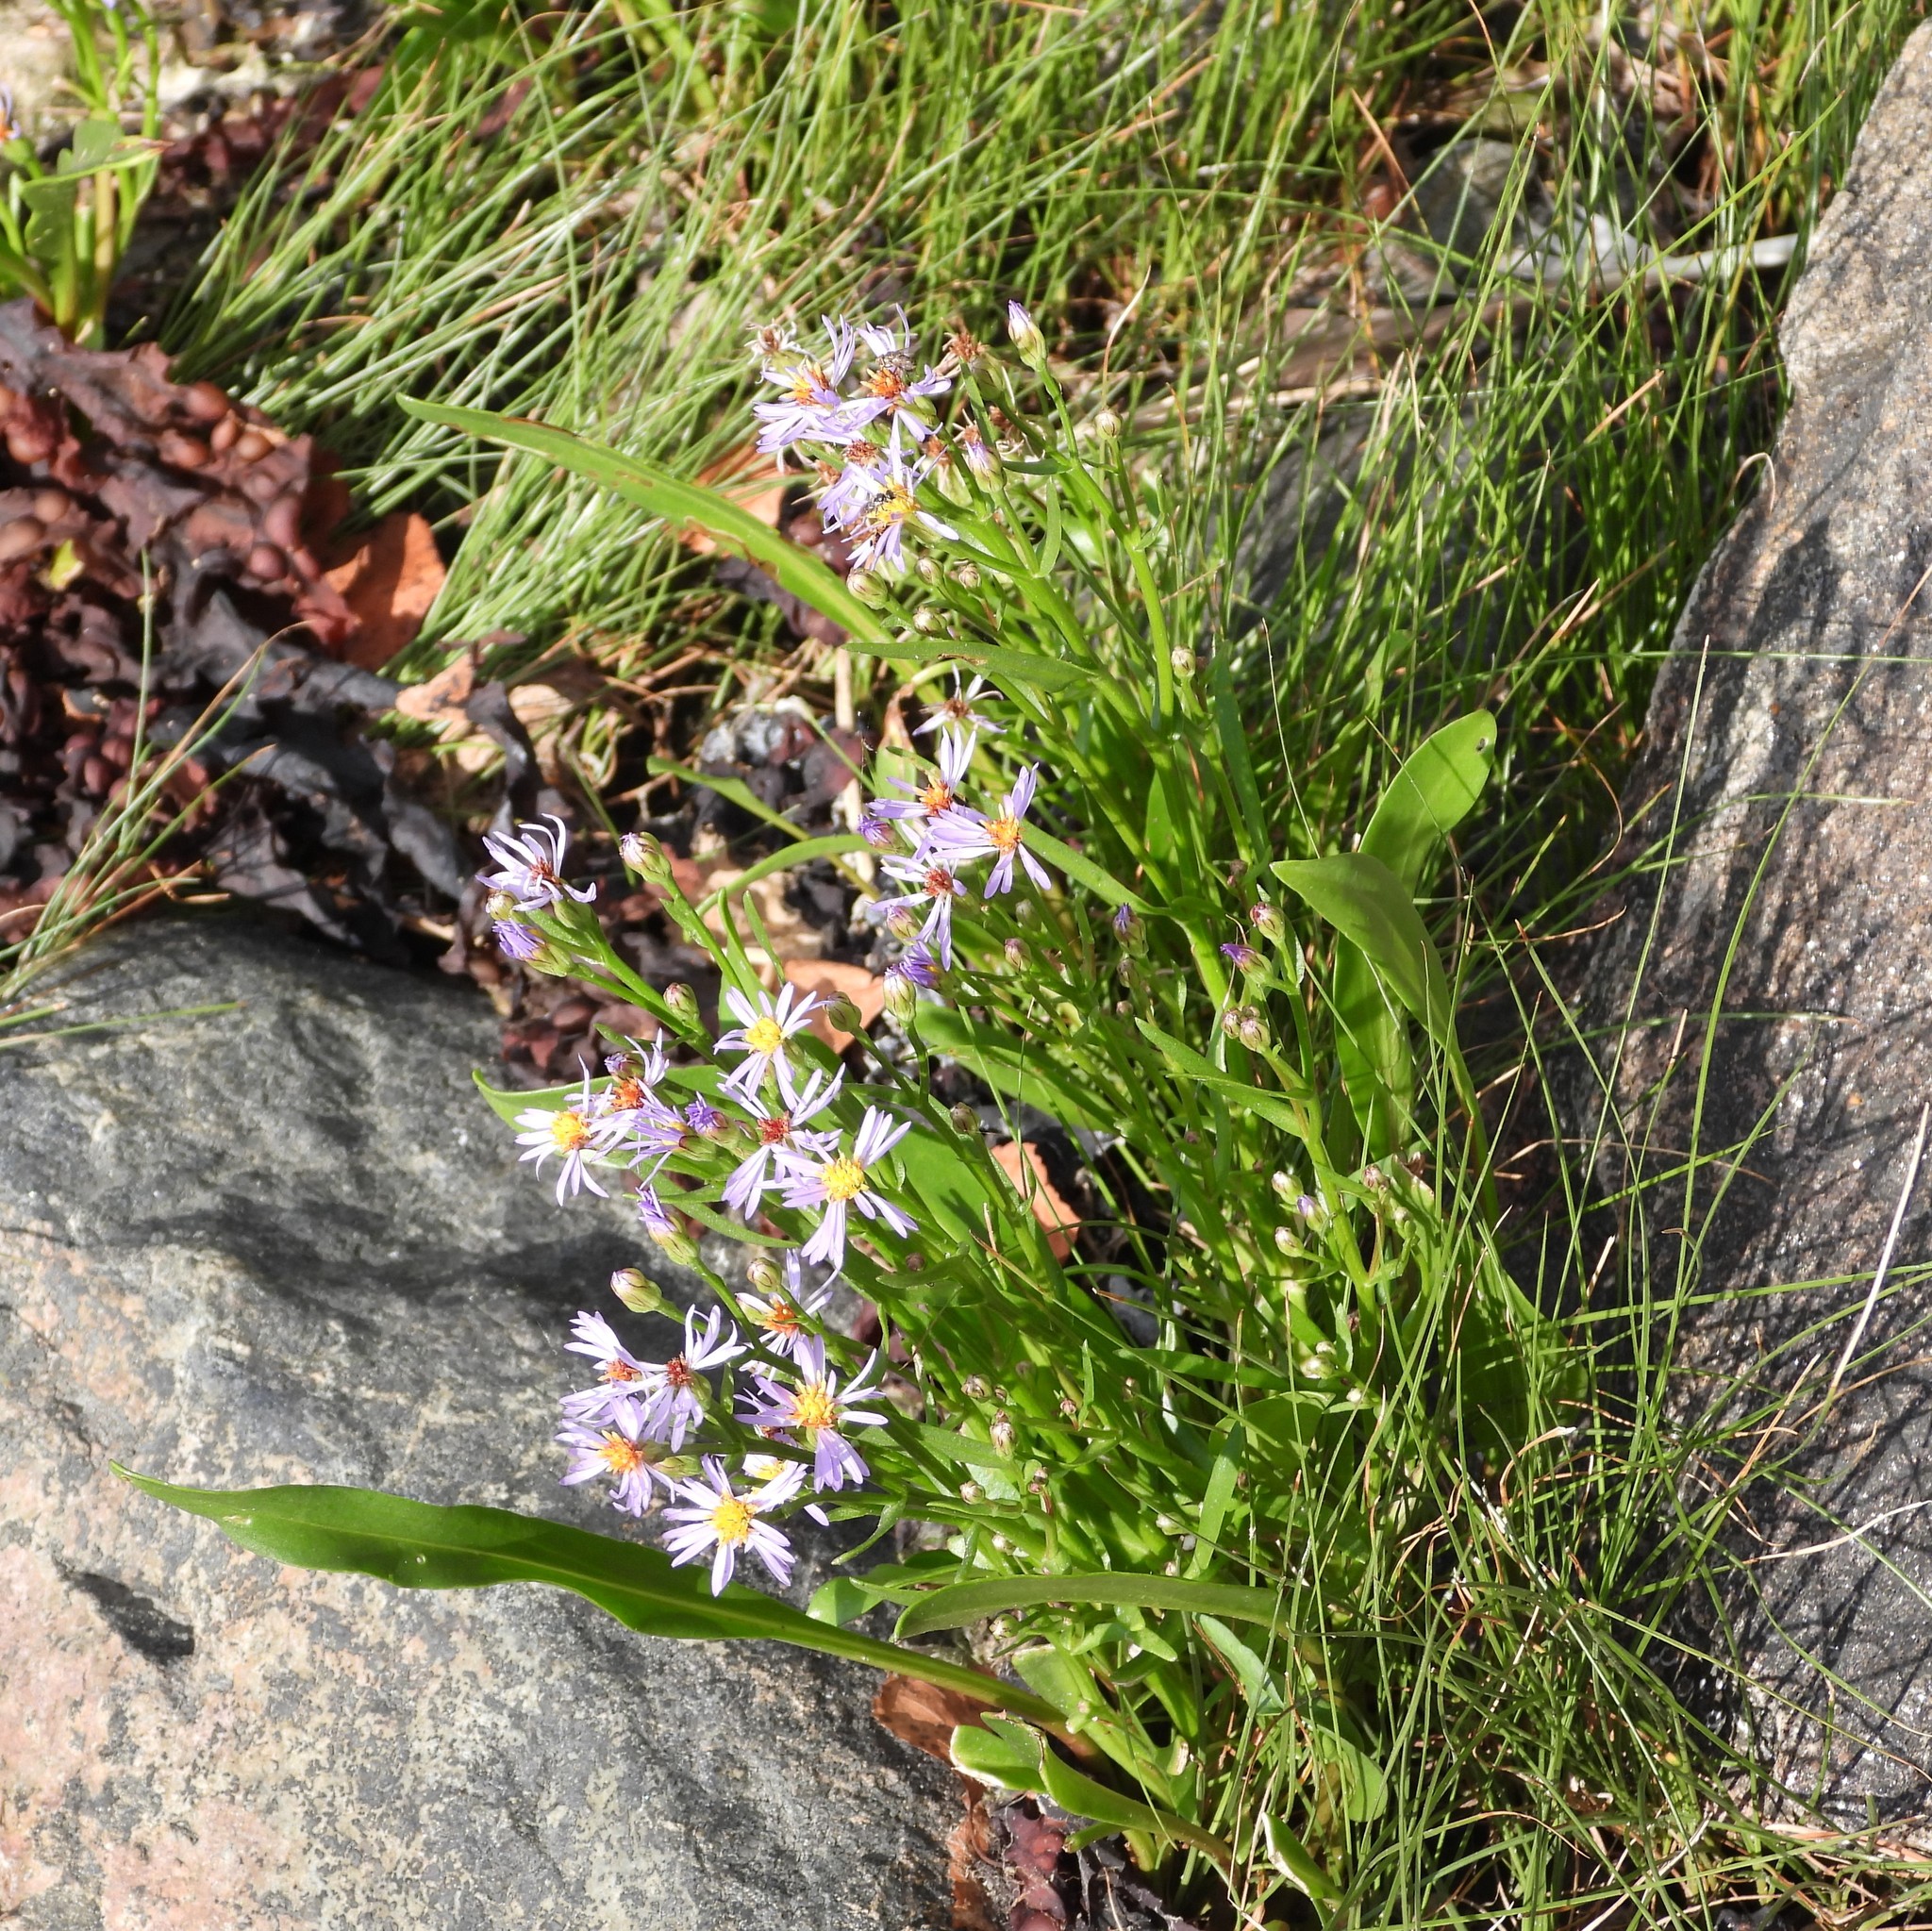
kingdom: Plantae
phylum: Tracheophyta
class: Magnoliopsida
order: Asterales
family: Asteraceae
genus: Tripolium
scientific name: Tripolium pannonicum
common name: Sea aster
